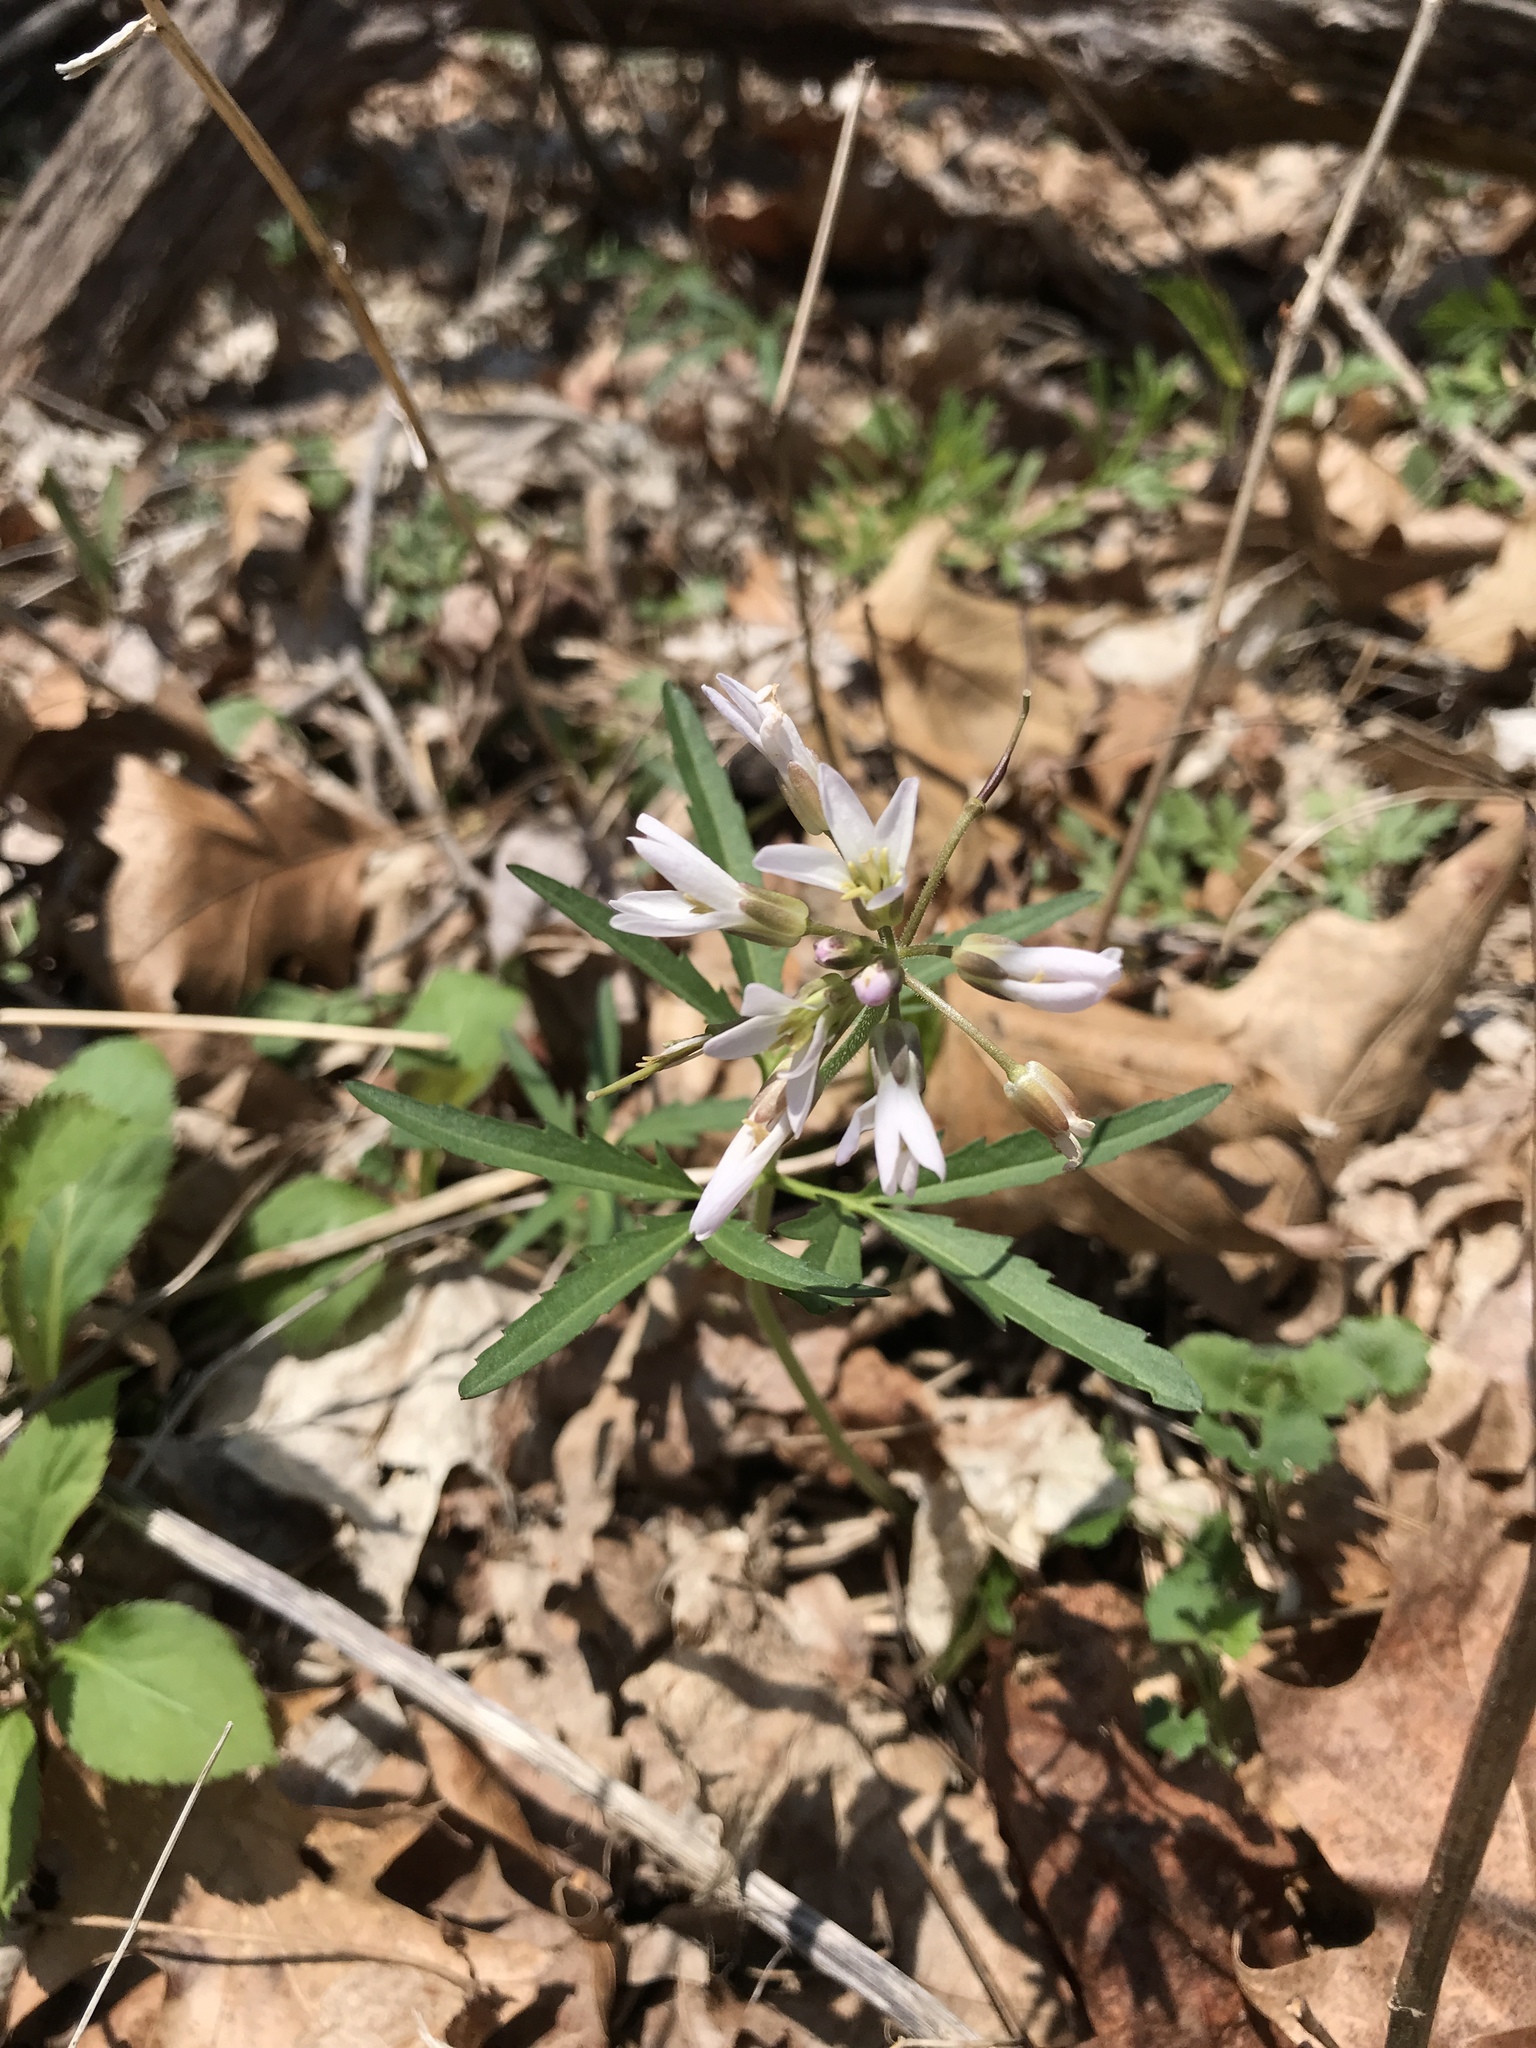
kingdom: Plantae
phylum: Tracheophyta
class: Magnoliopsida
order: Brassicales
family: Brassicaceae
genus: Cardamine
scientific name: Cardamine concatenata
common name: Cut-leaf toothcup
